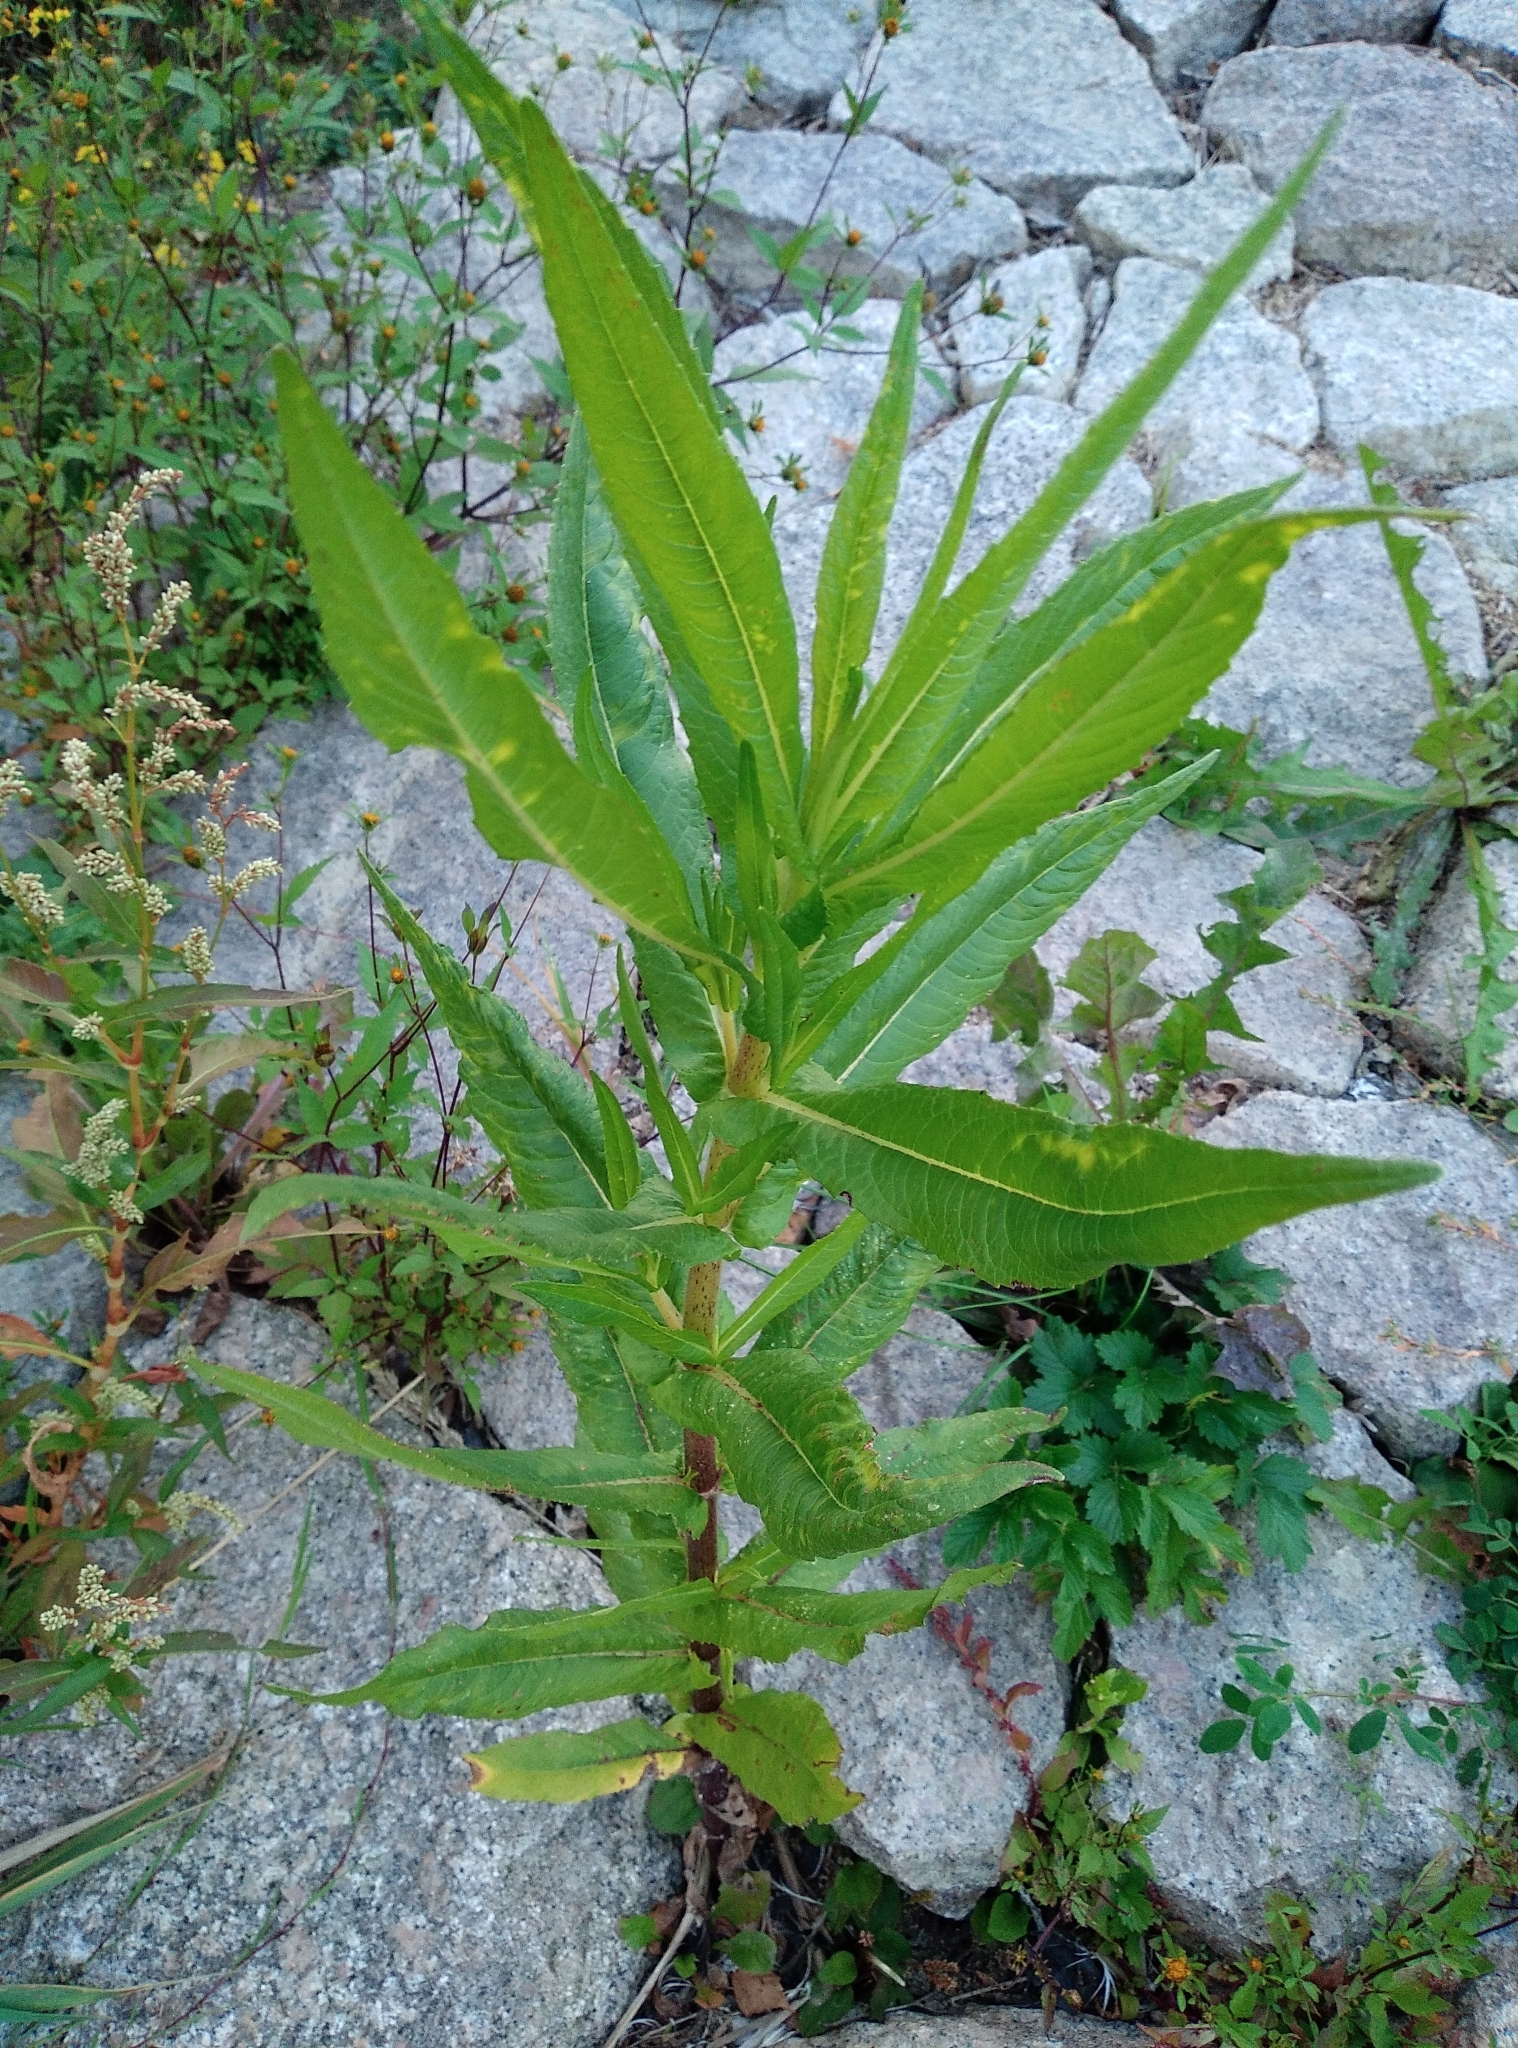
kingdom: Plantae
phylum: Tracheophyta
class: Magnoliopsida
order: Asterales
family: Asteraceae
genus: Guizotia
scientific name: Guizotia abyssinica
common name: Niger
